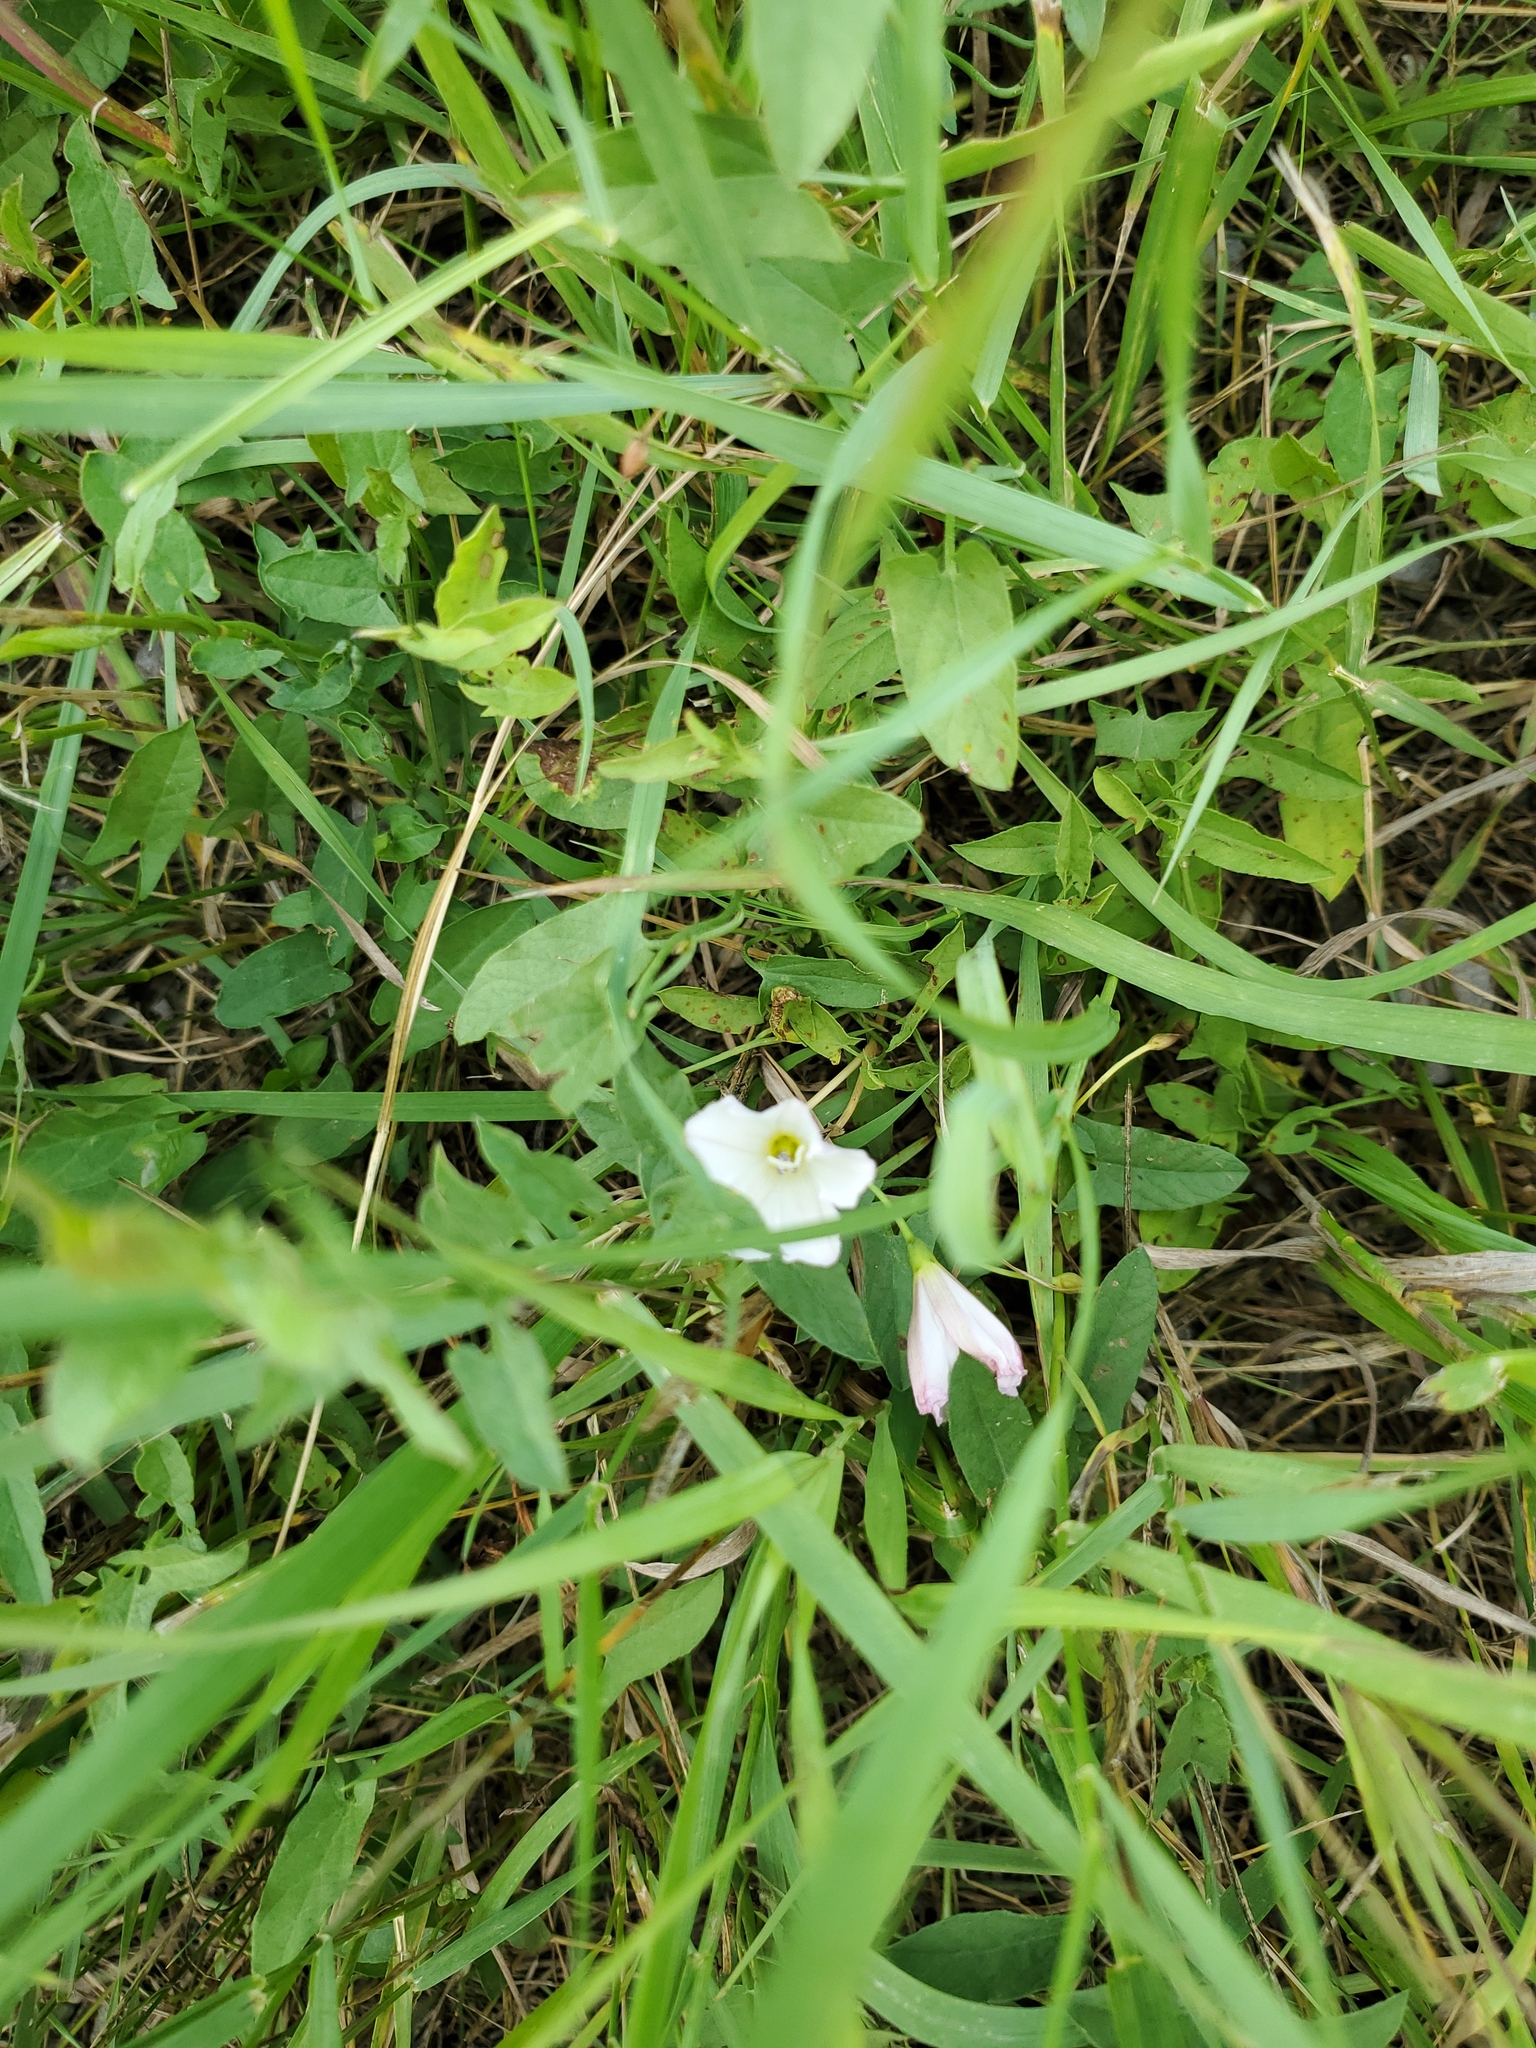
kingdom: Plantae
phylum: Tracheophyta
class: Magnoliopsida
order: Solanales
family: Convolvulaceae
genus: Convolvulus
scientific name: Convolvulus arvensis
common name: Field bindweed
